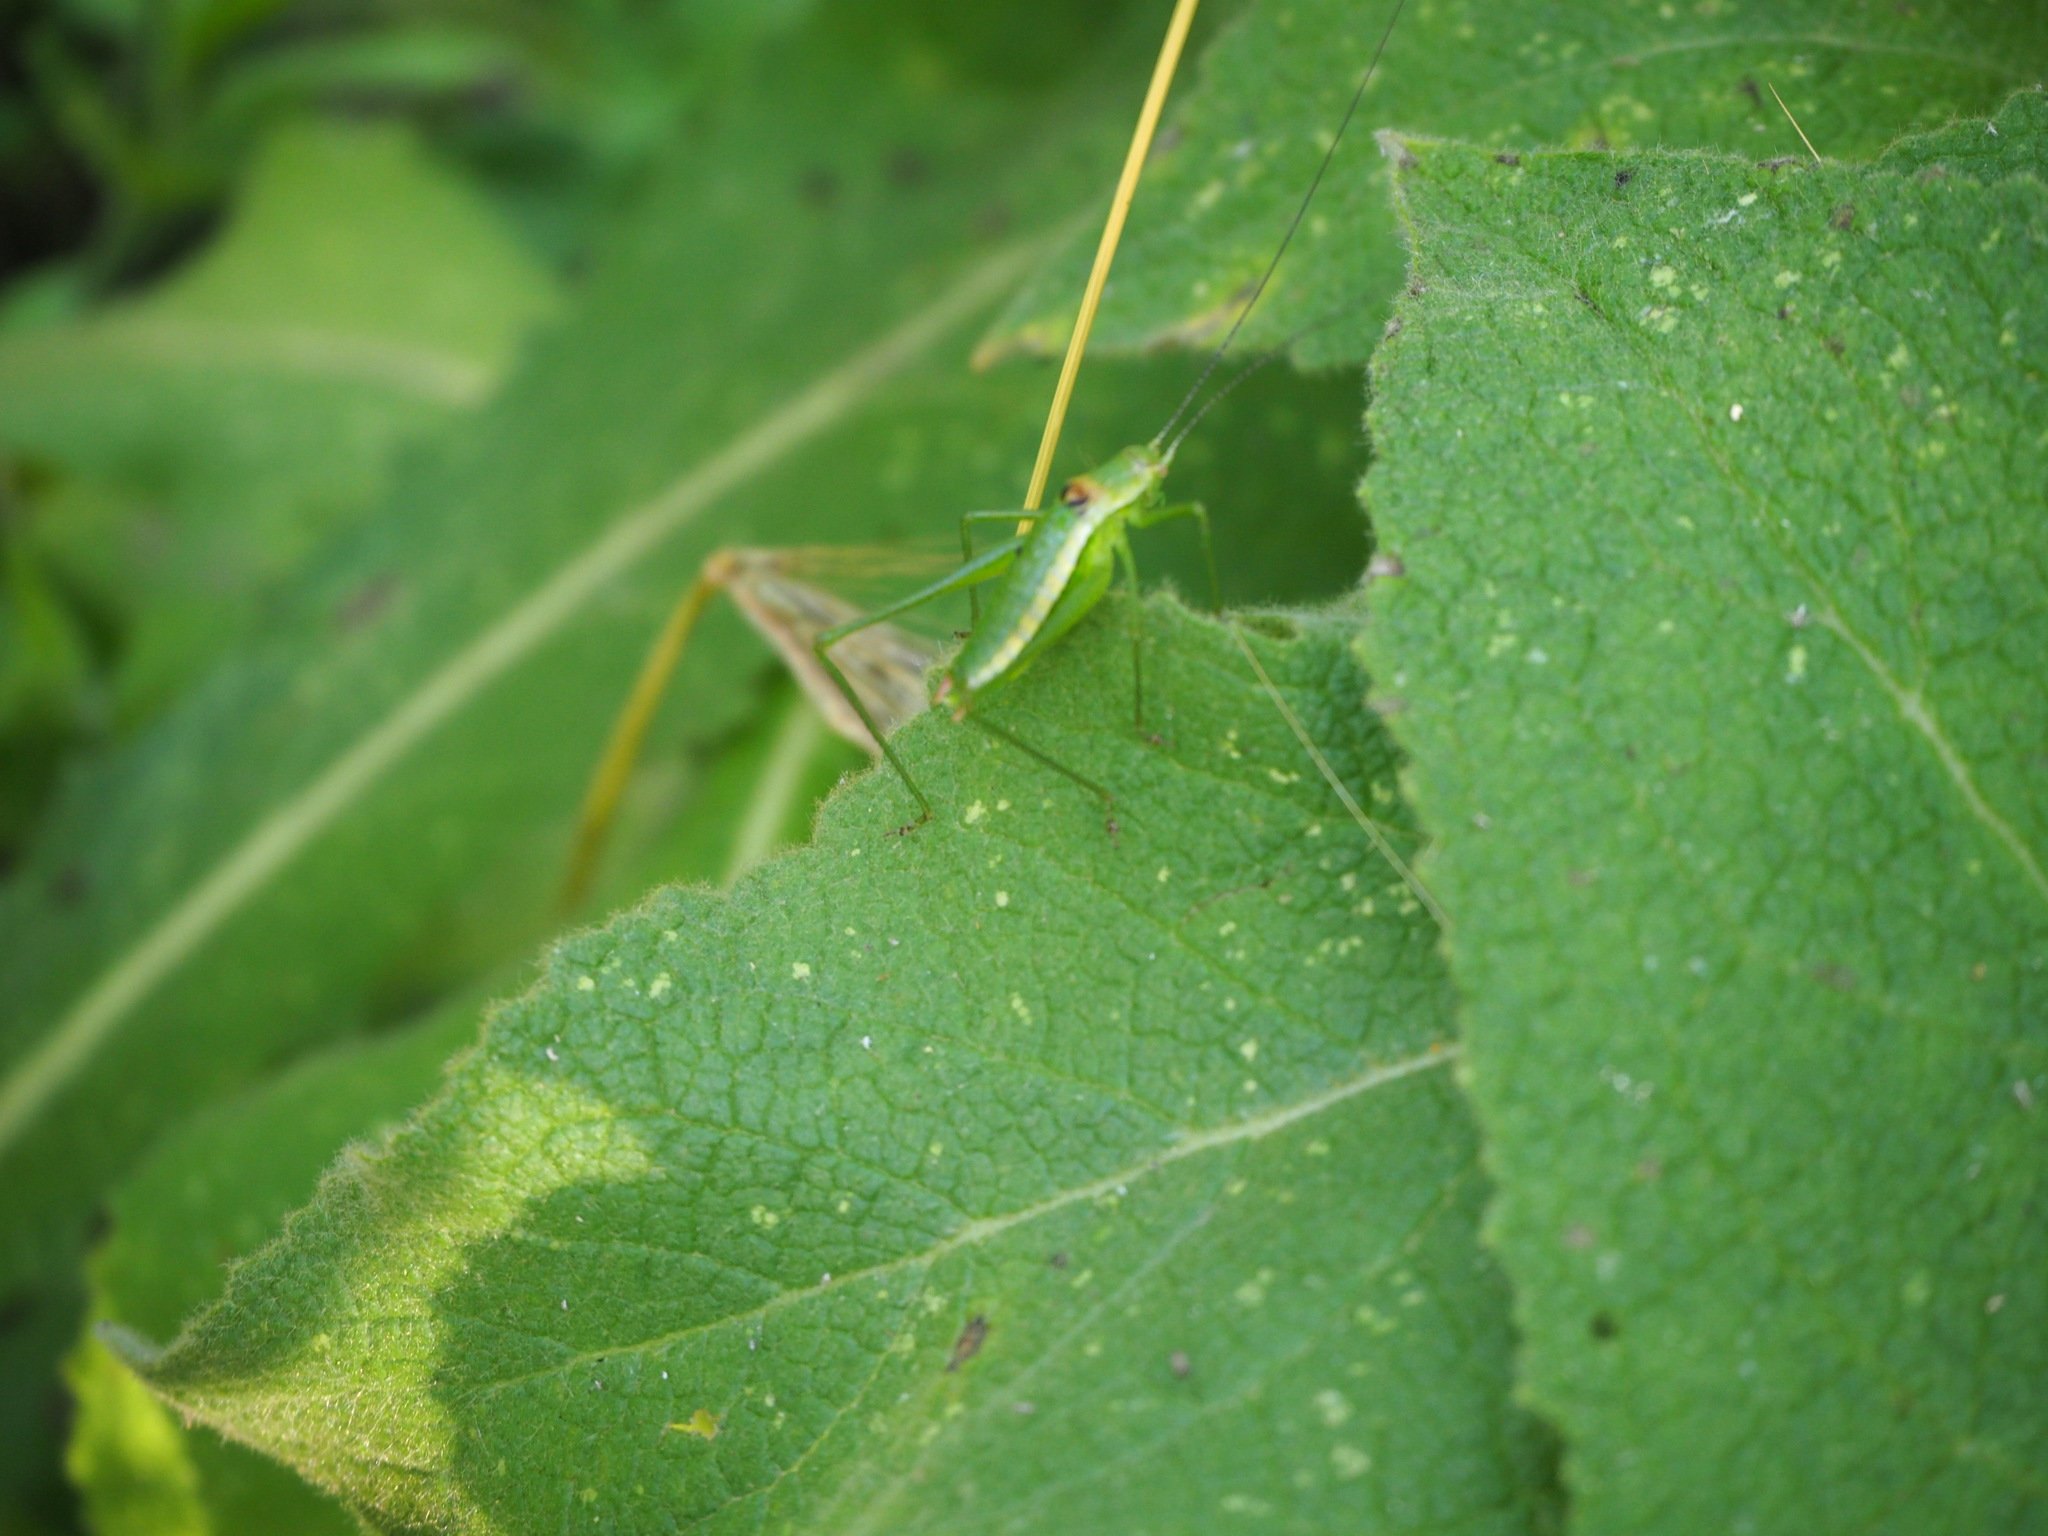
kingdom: Animalia
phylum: Arthropoda
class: Insecta
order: Orthoptera
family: Tettigoniidae
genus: Leptophyes
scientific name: Leptophyes boscii
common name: Balkan speckled bush-cricket
